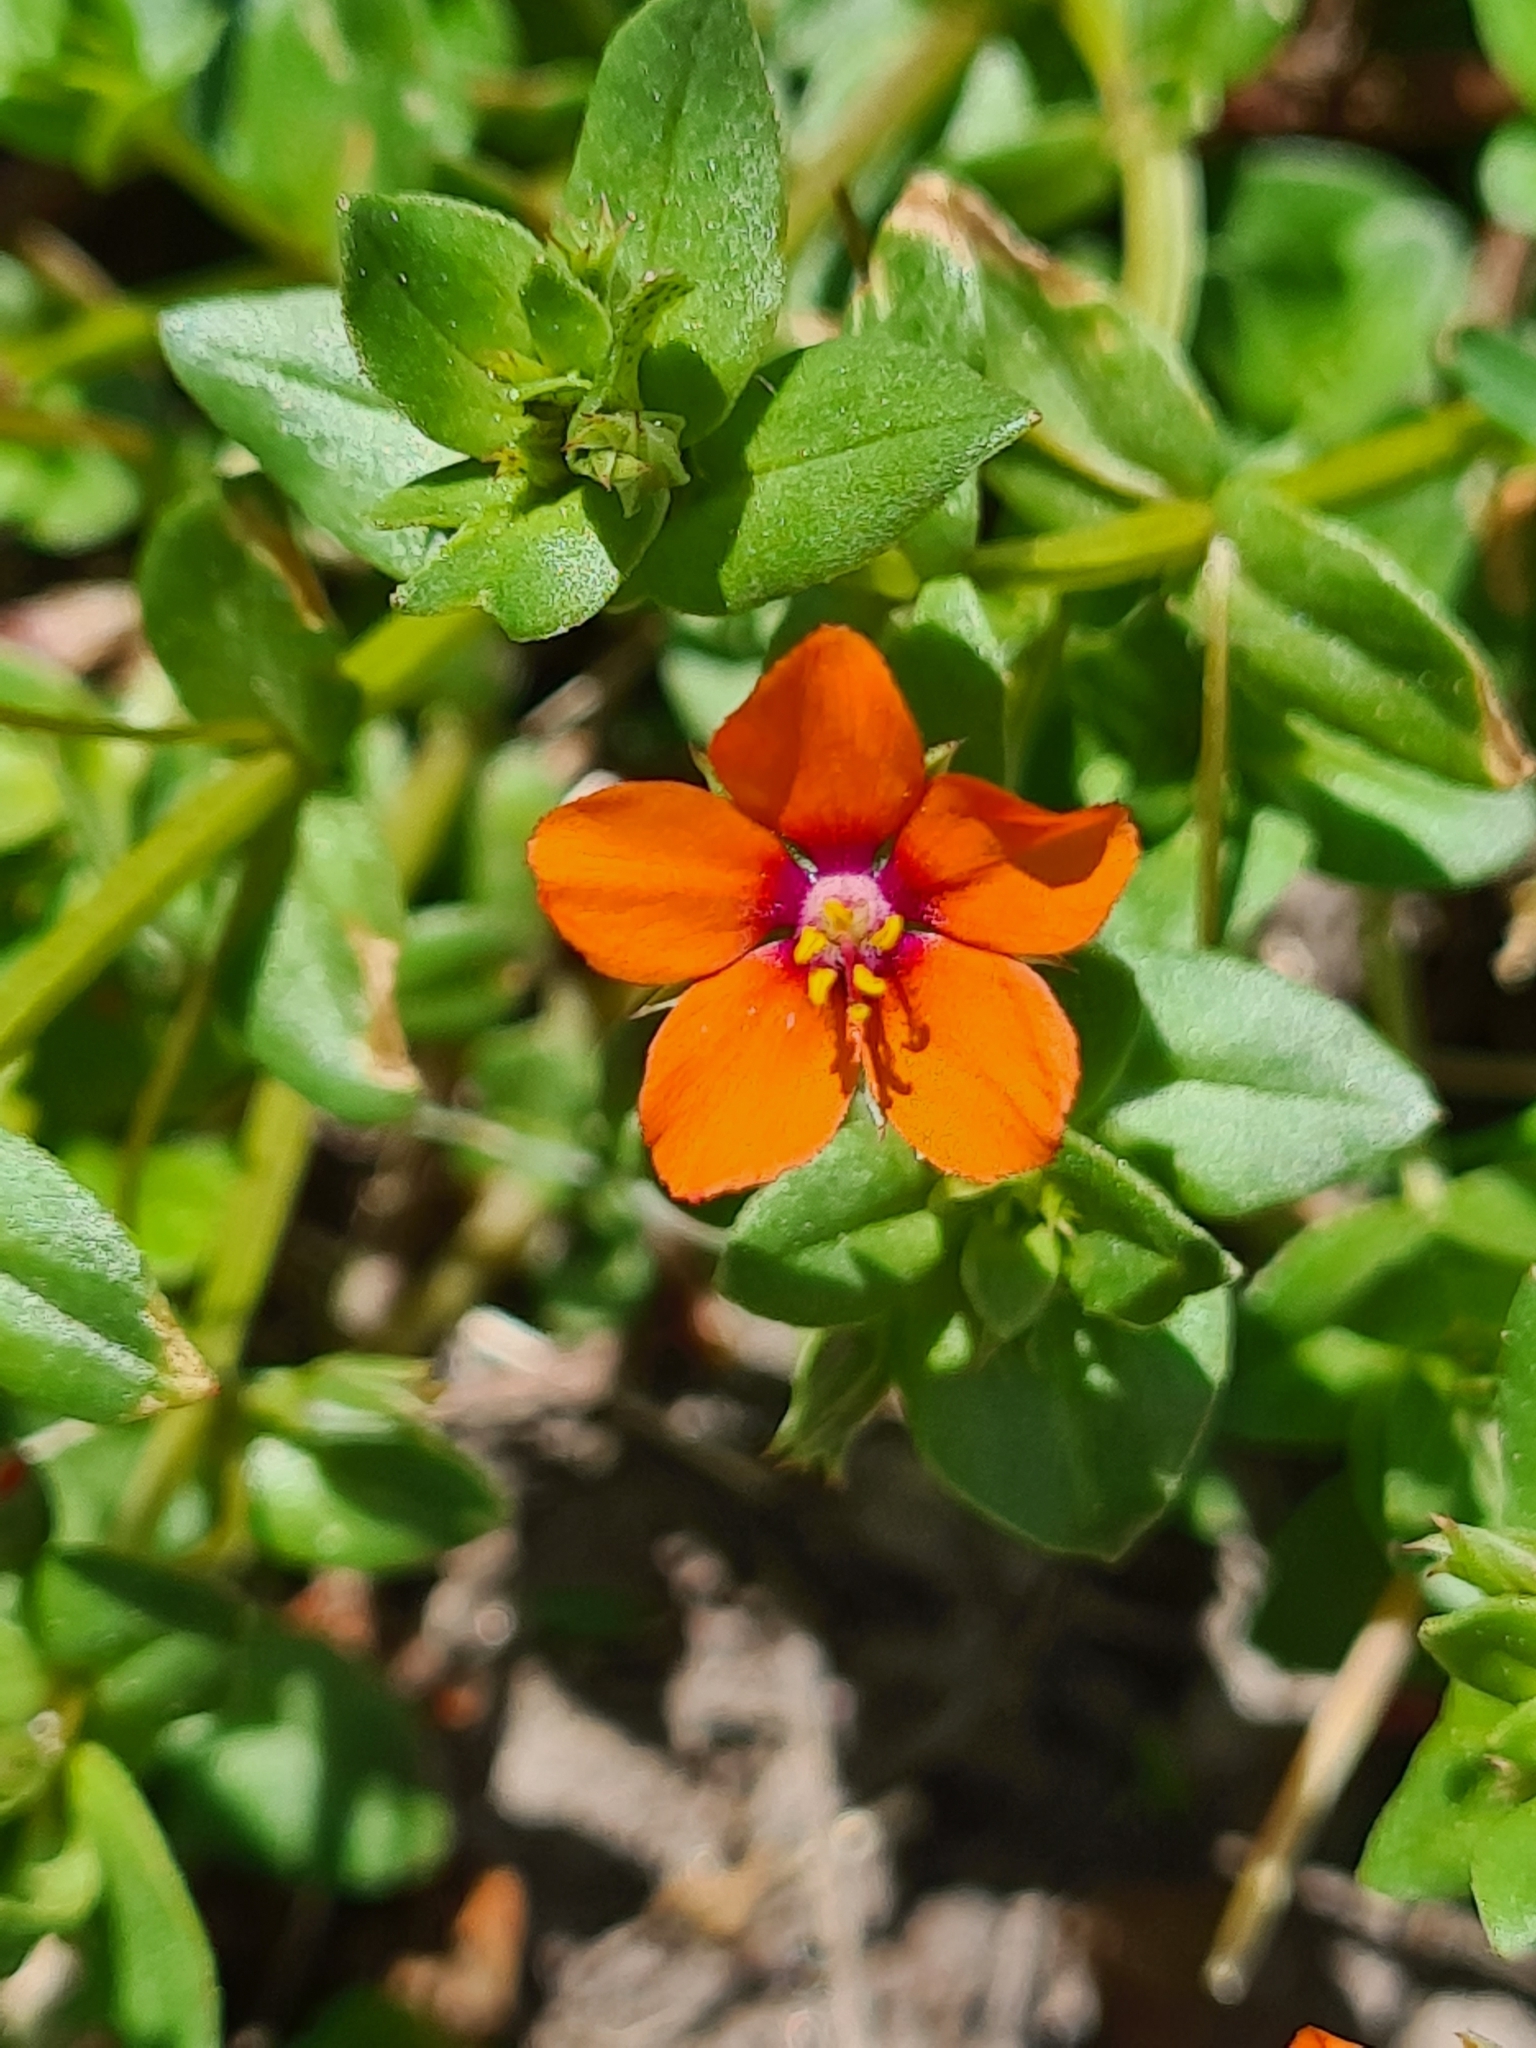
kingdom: Plantae
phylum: Tracheophyta
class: Magnoliopsida
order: Ericales
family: Primulaceae
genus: Lysimachia
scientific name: Lysimachia arvensis
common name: Scarlet pimpernel
